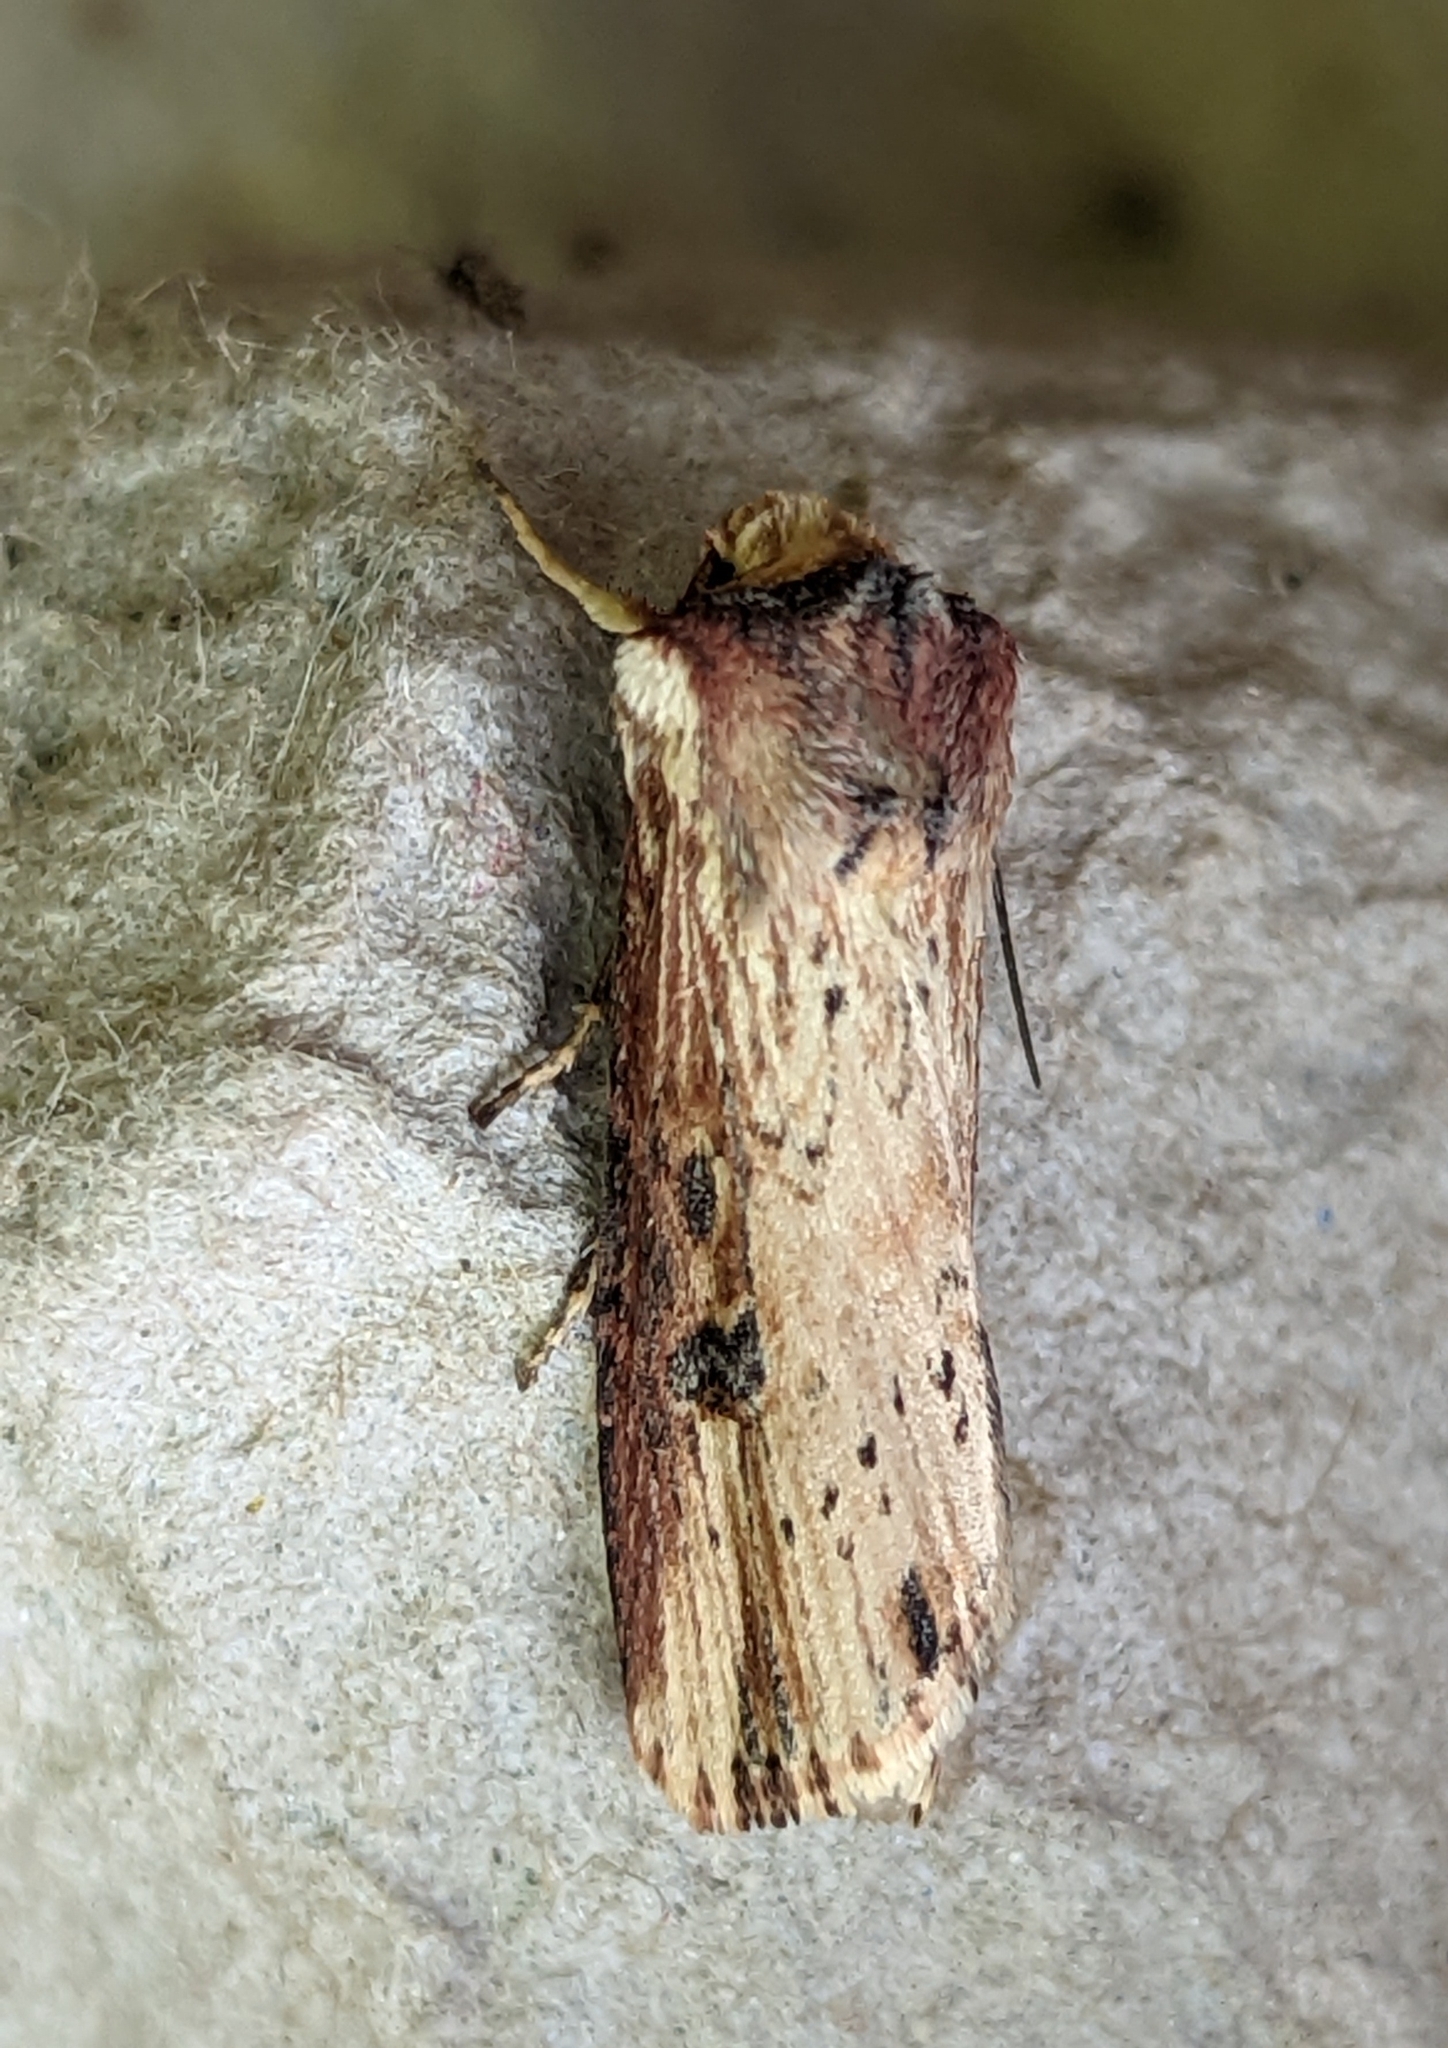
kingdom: Animalia
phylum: Arthropoda
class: Insecta
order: Lepidoptera
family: Noctuidae
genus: Axylia
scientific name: Axylia putris
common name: Flame
